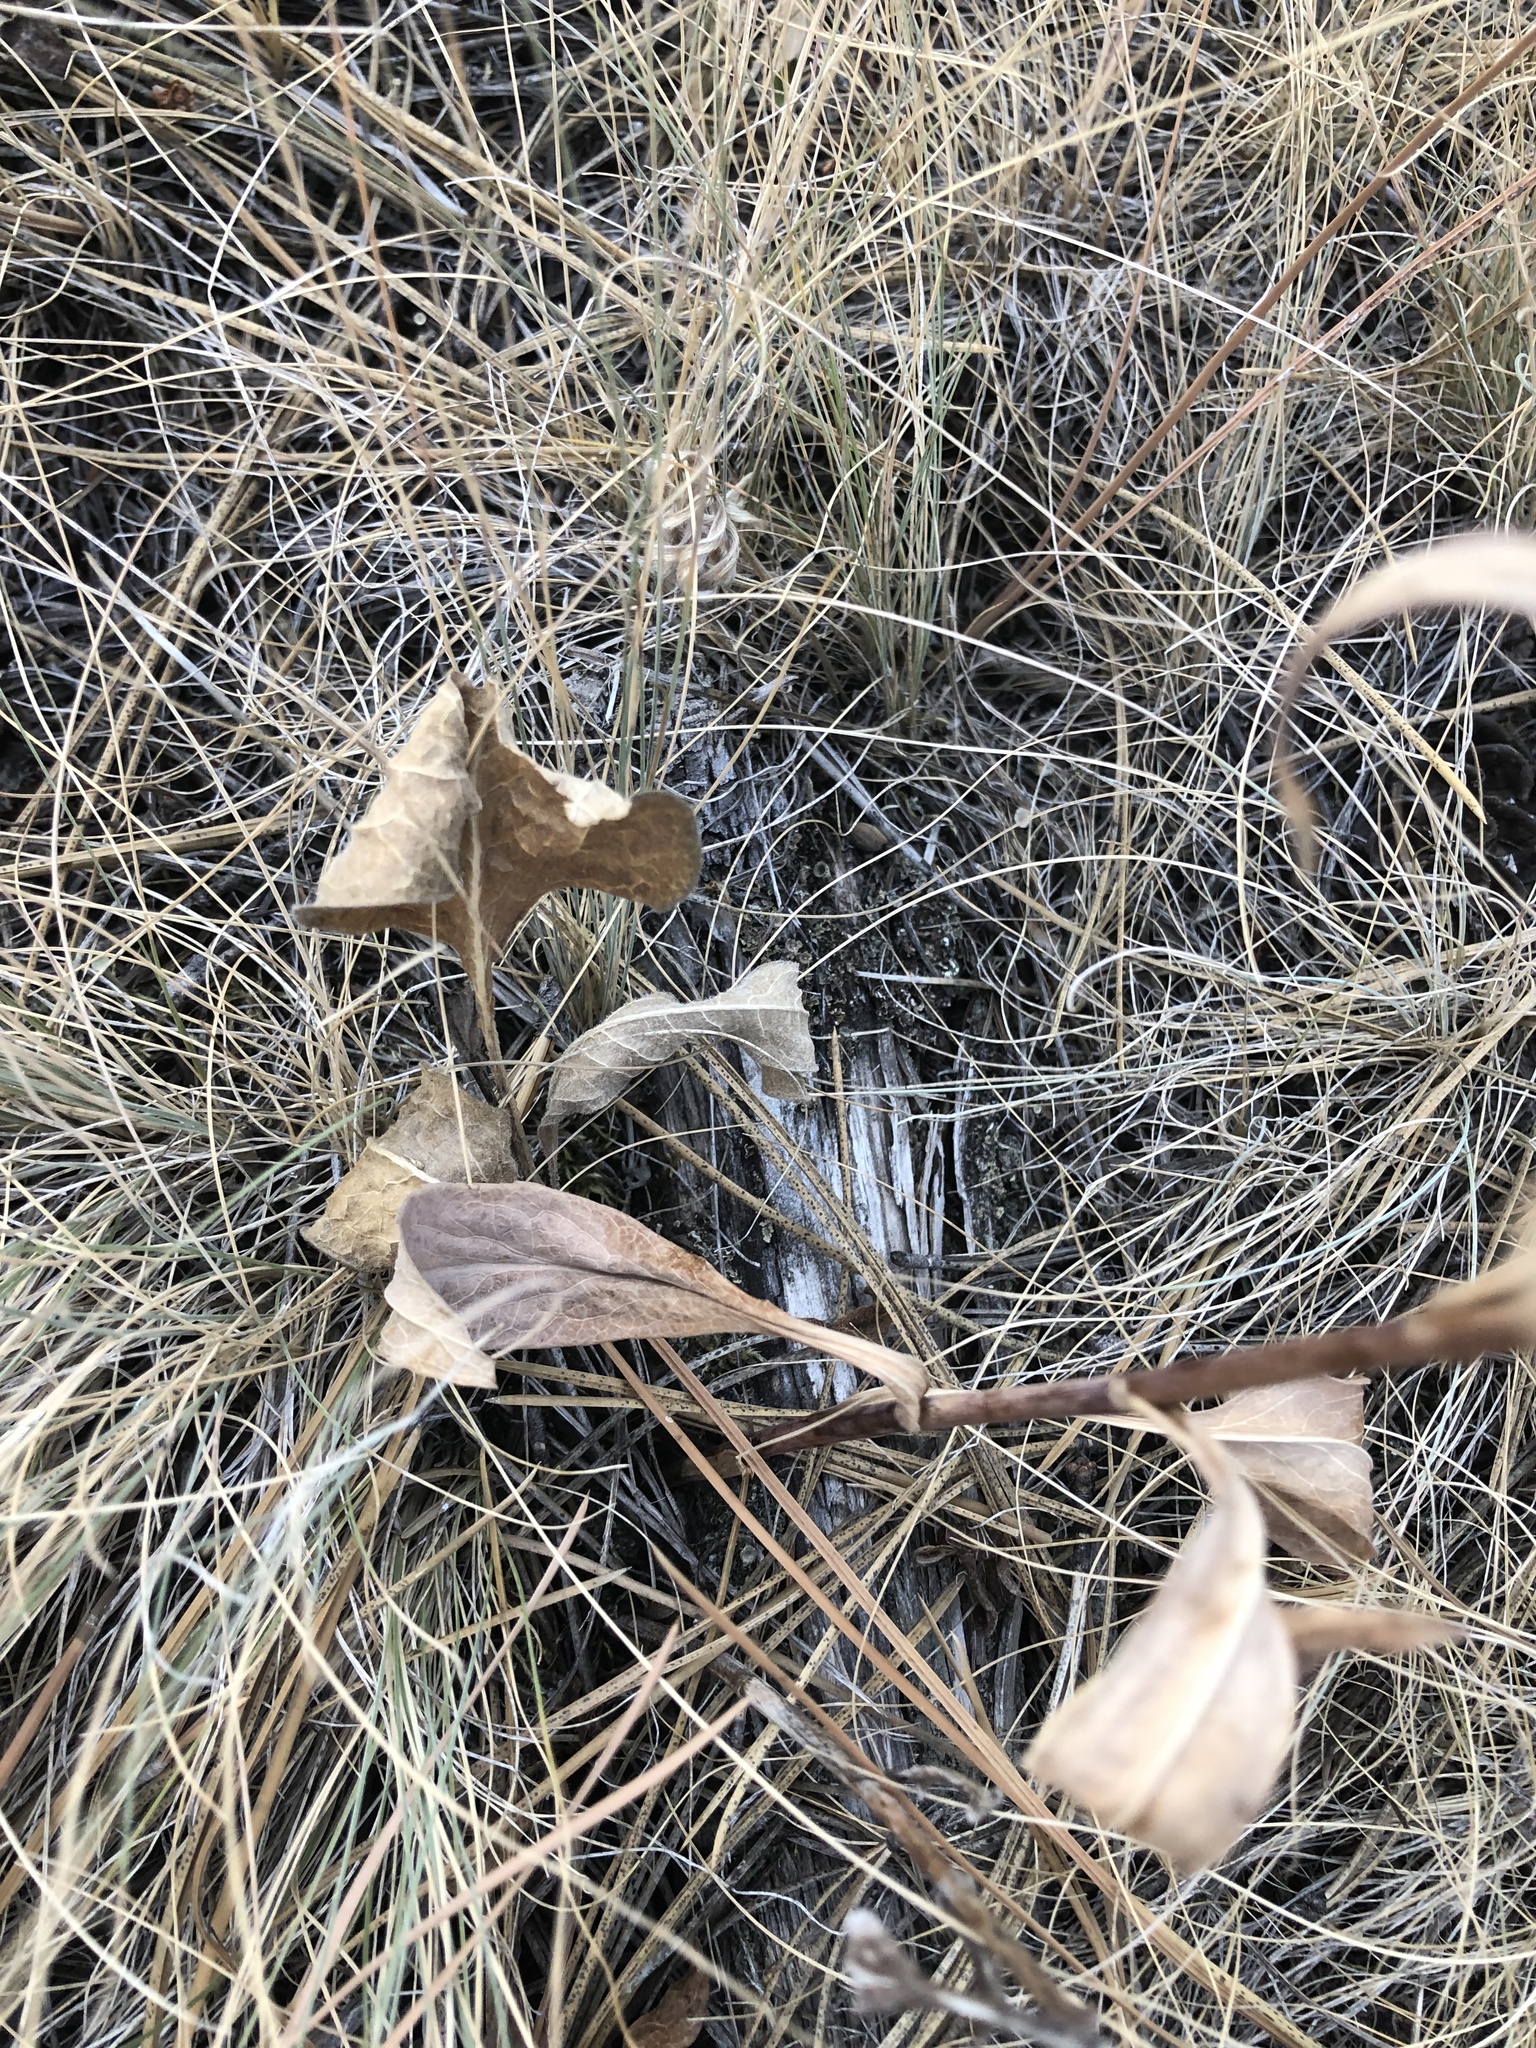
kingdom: Plantae
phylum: Tracheophyta
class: Magnoliopsida
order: Asterales
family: Asteraceae
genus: Symphyotrichum
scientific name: Symphyotrichum laeve
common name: Glaucous aster
